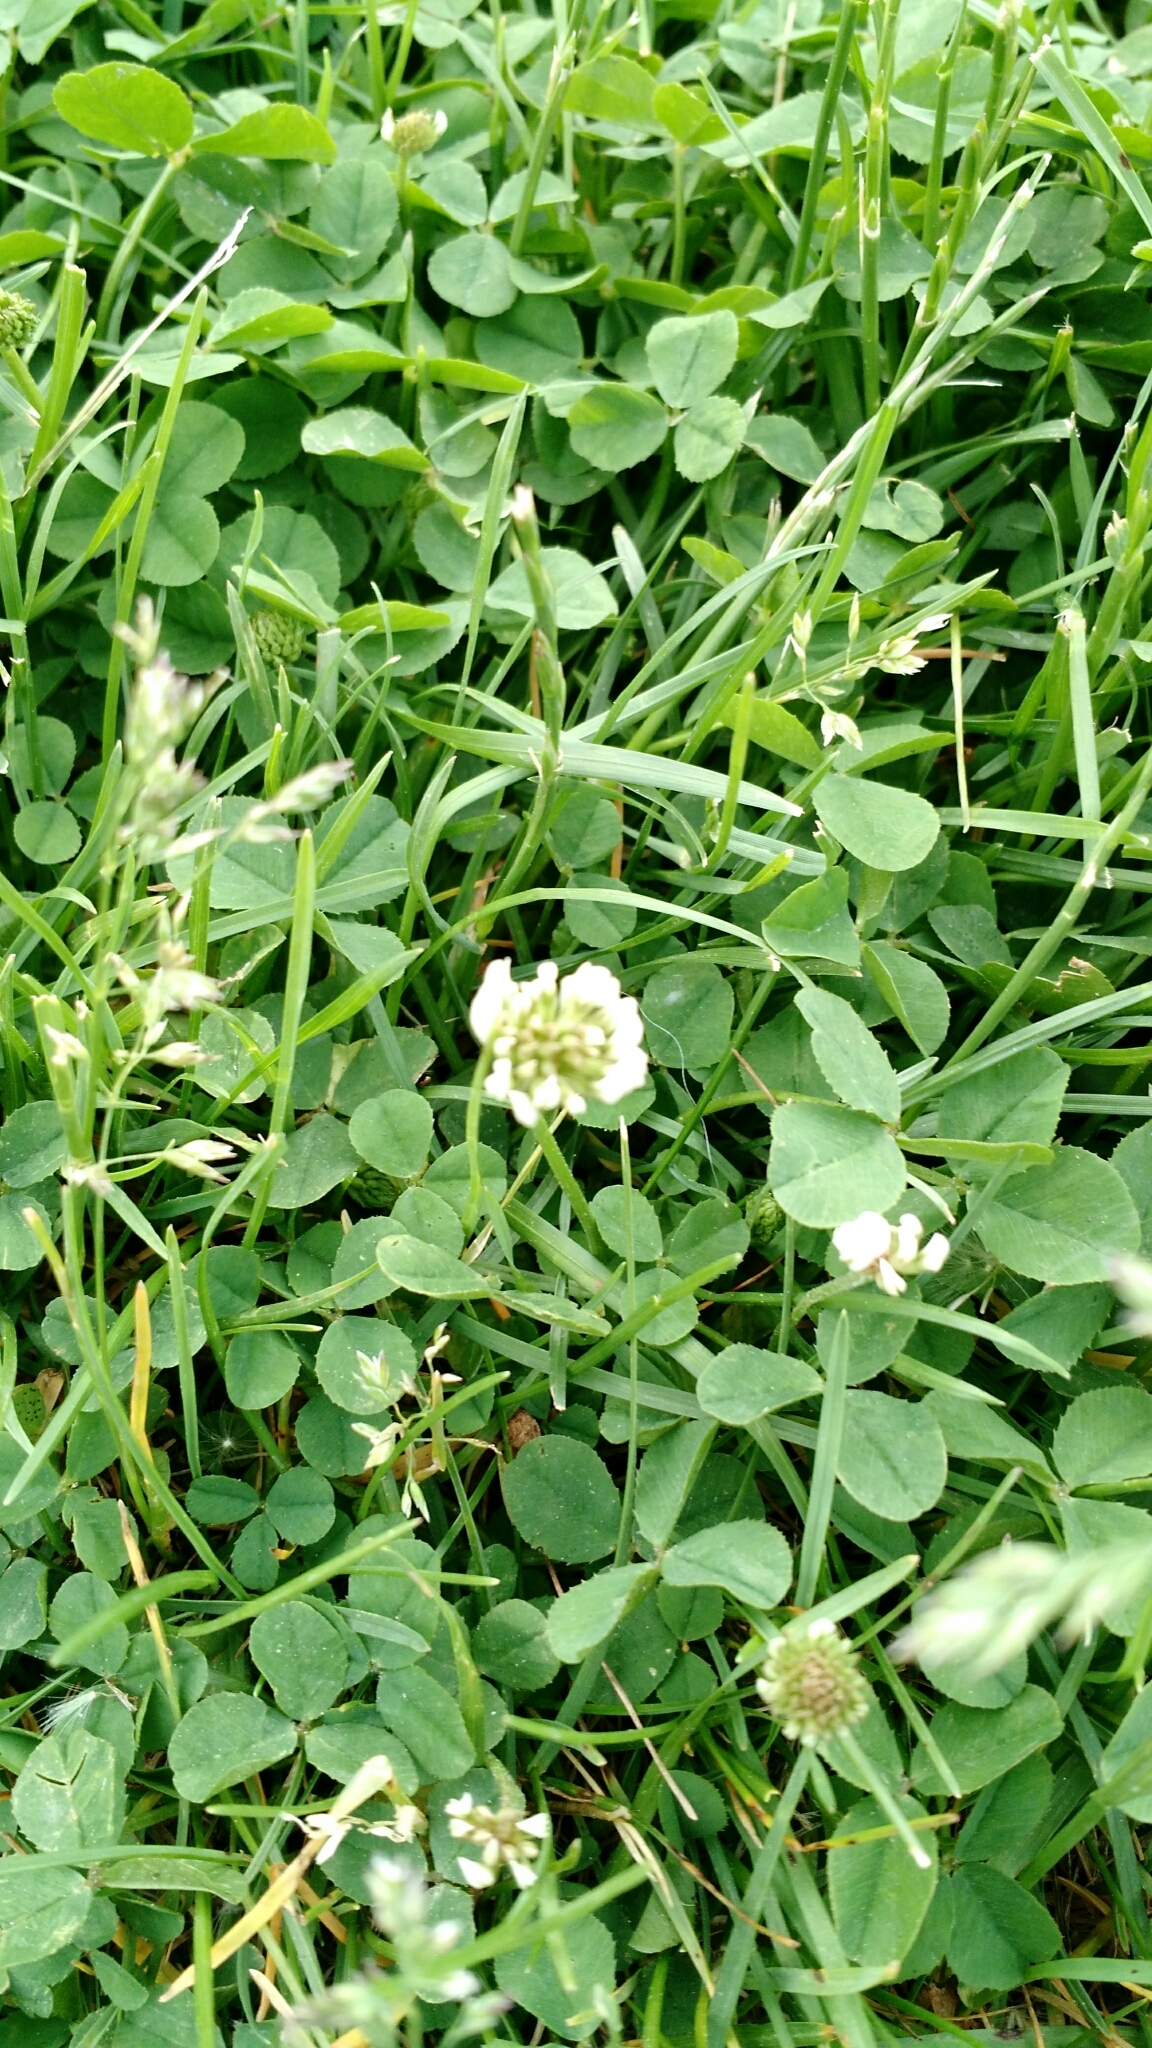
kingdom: Plantae
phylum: Tracheophyta
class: Magnoliopsida
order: Fabales
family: Fabaceae
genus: Trifolium
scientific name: Trifolium repens
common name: White clover
